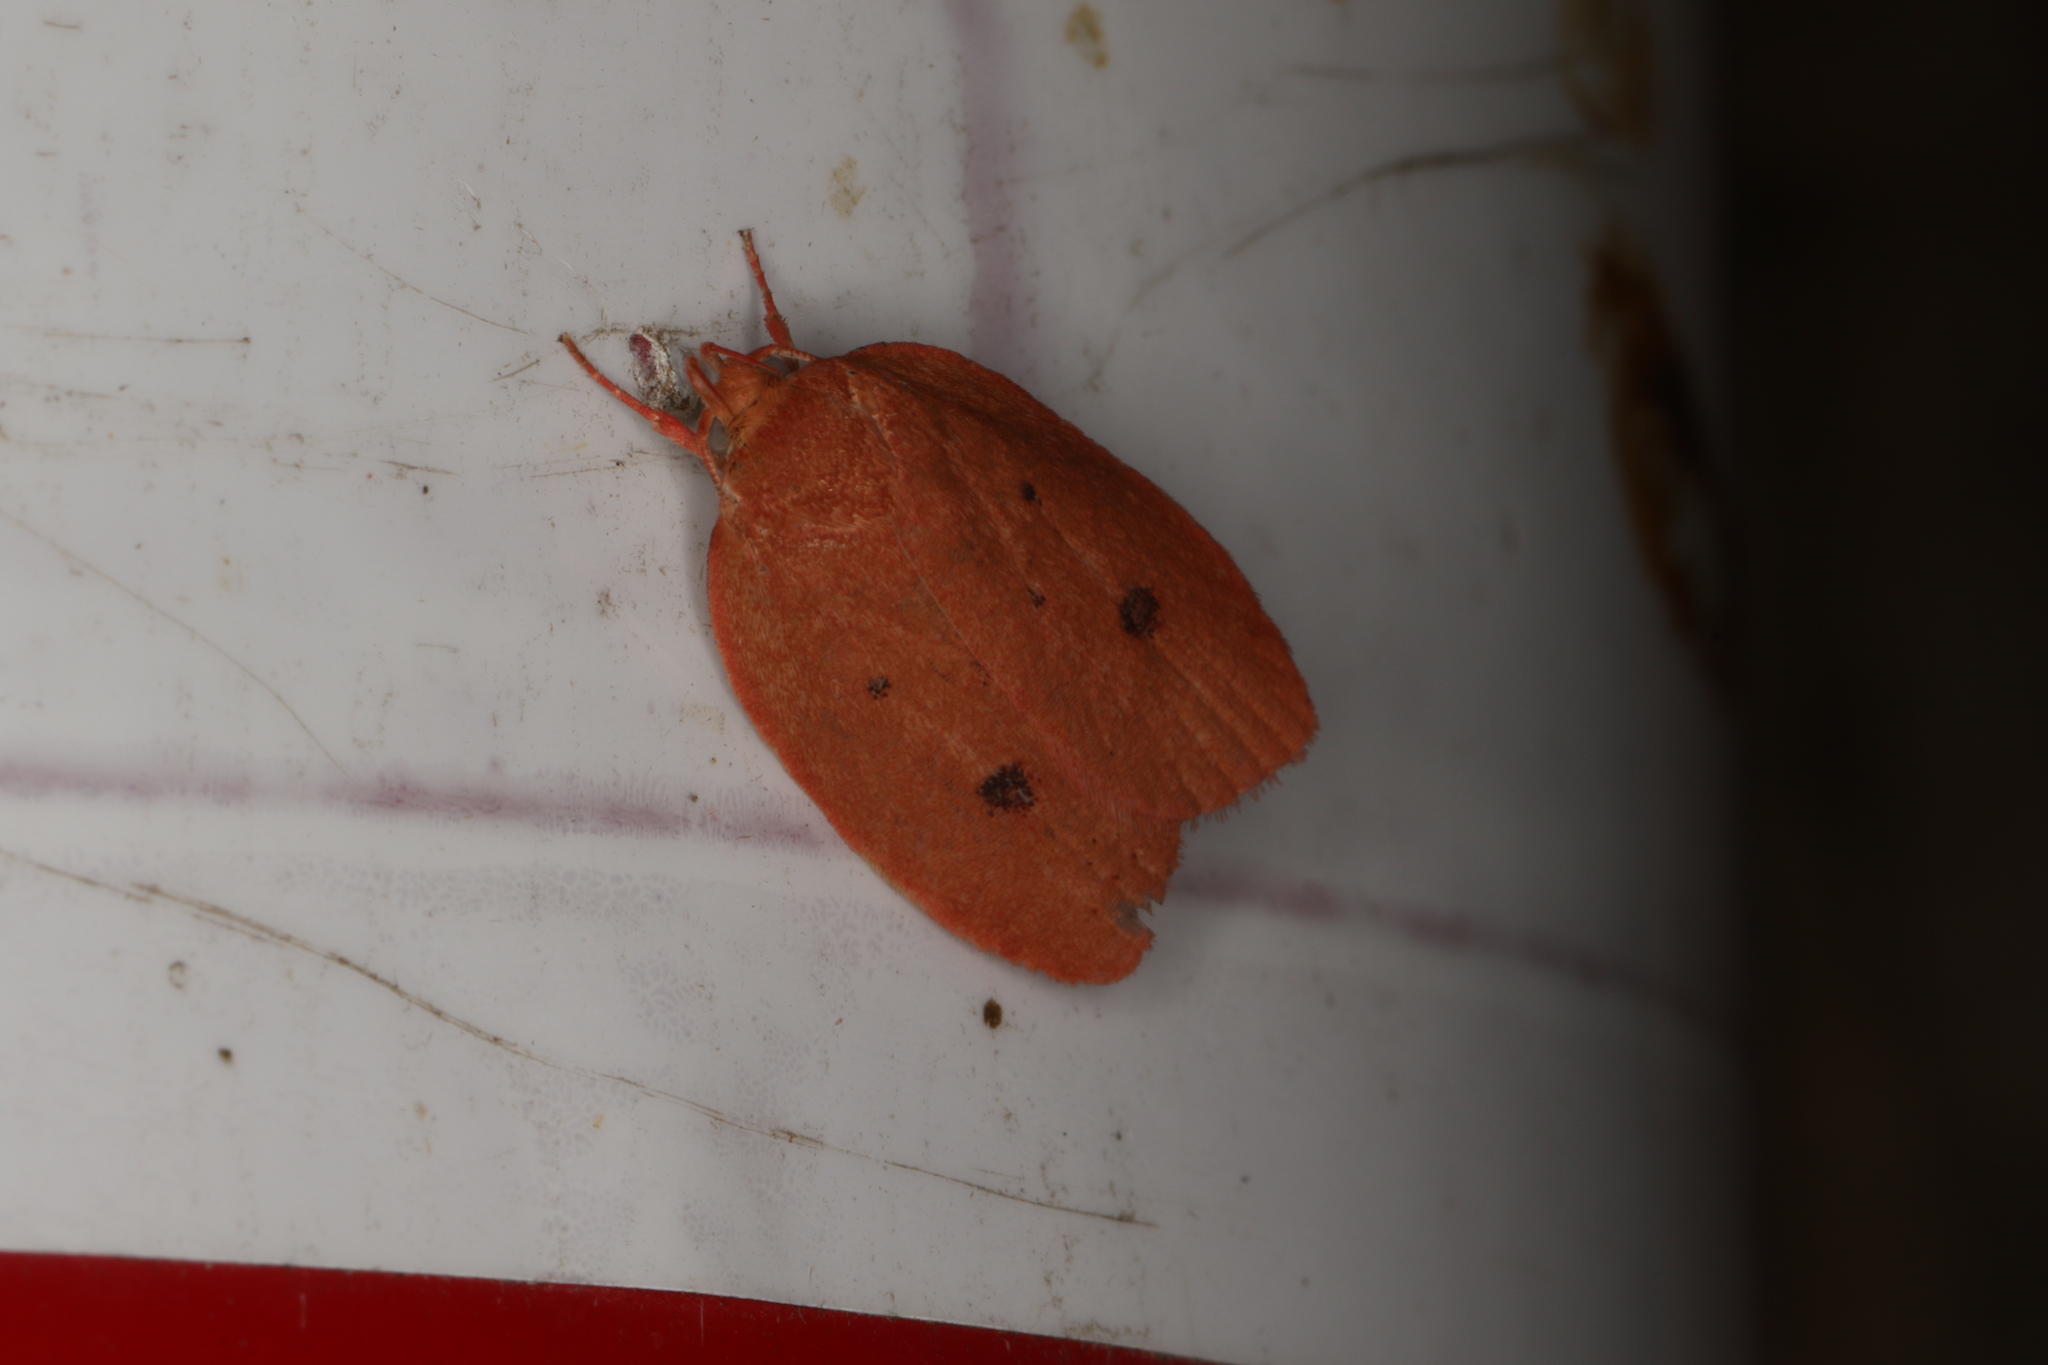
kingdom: Animalia
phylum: Arthropoda
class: Insecta
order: Lepidoptera
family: Oecophoridae
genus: Garrha
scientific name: Garrha pudica
